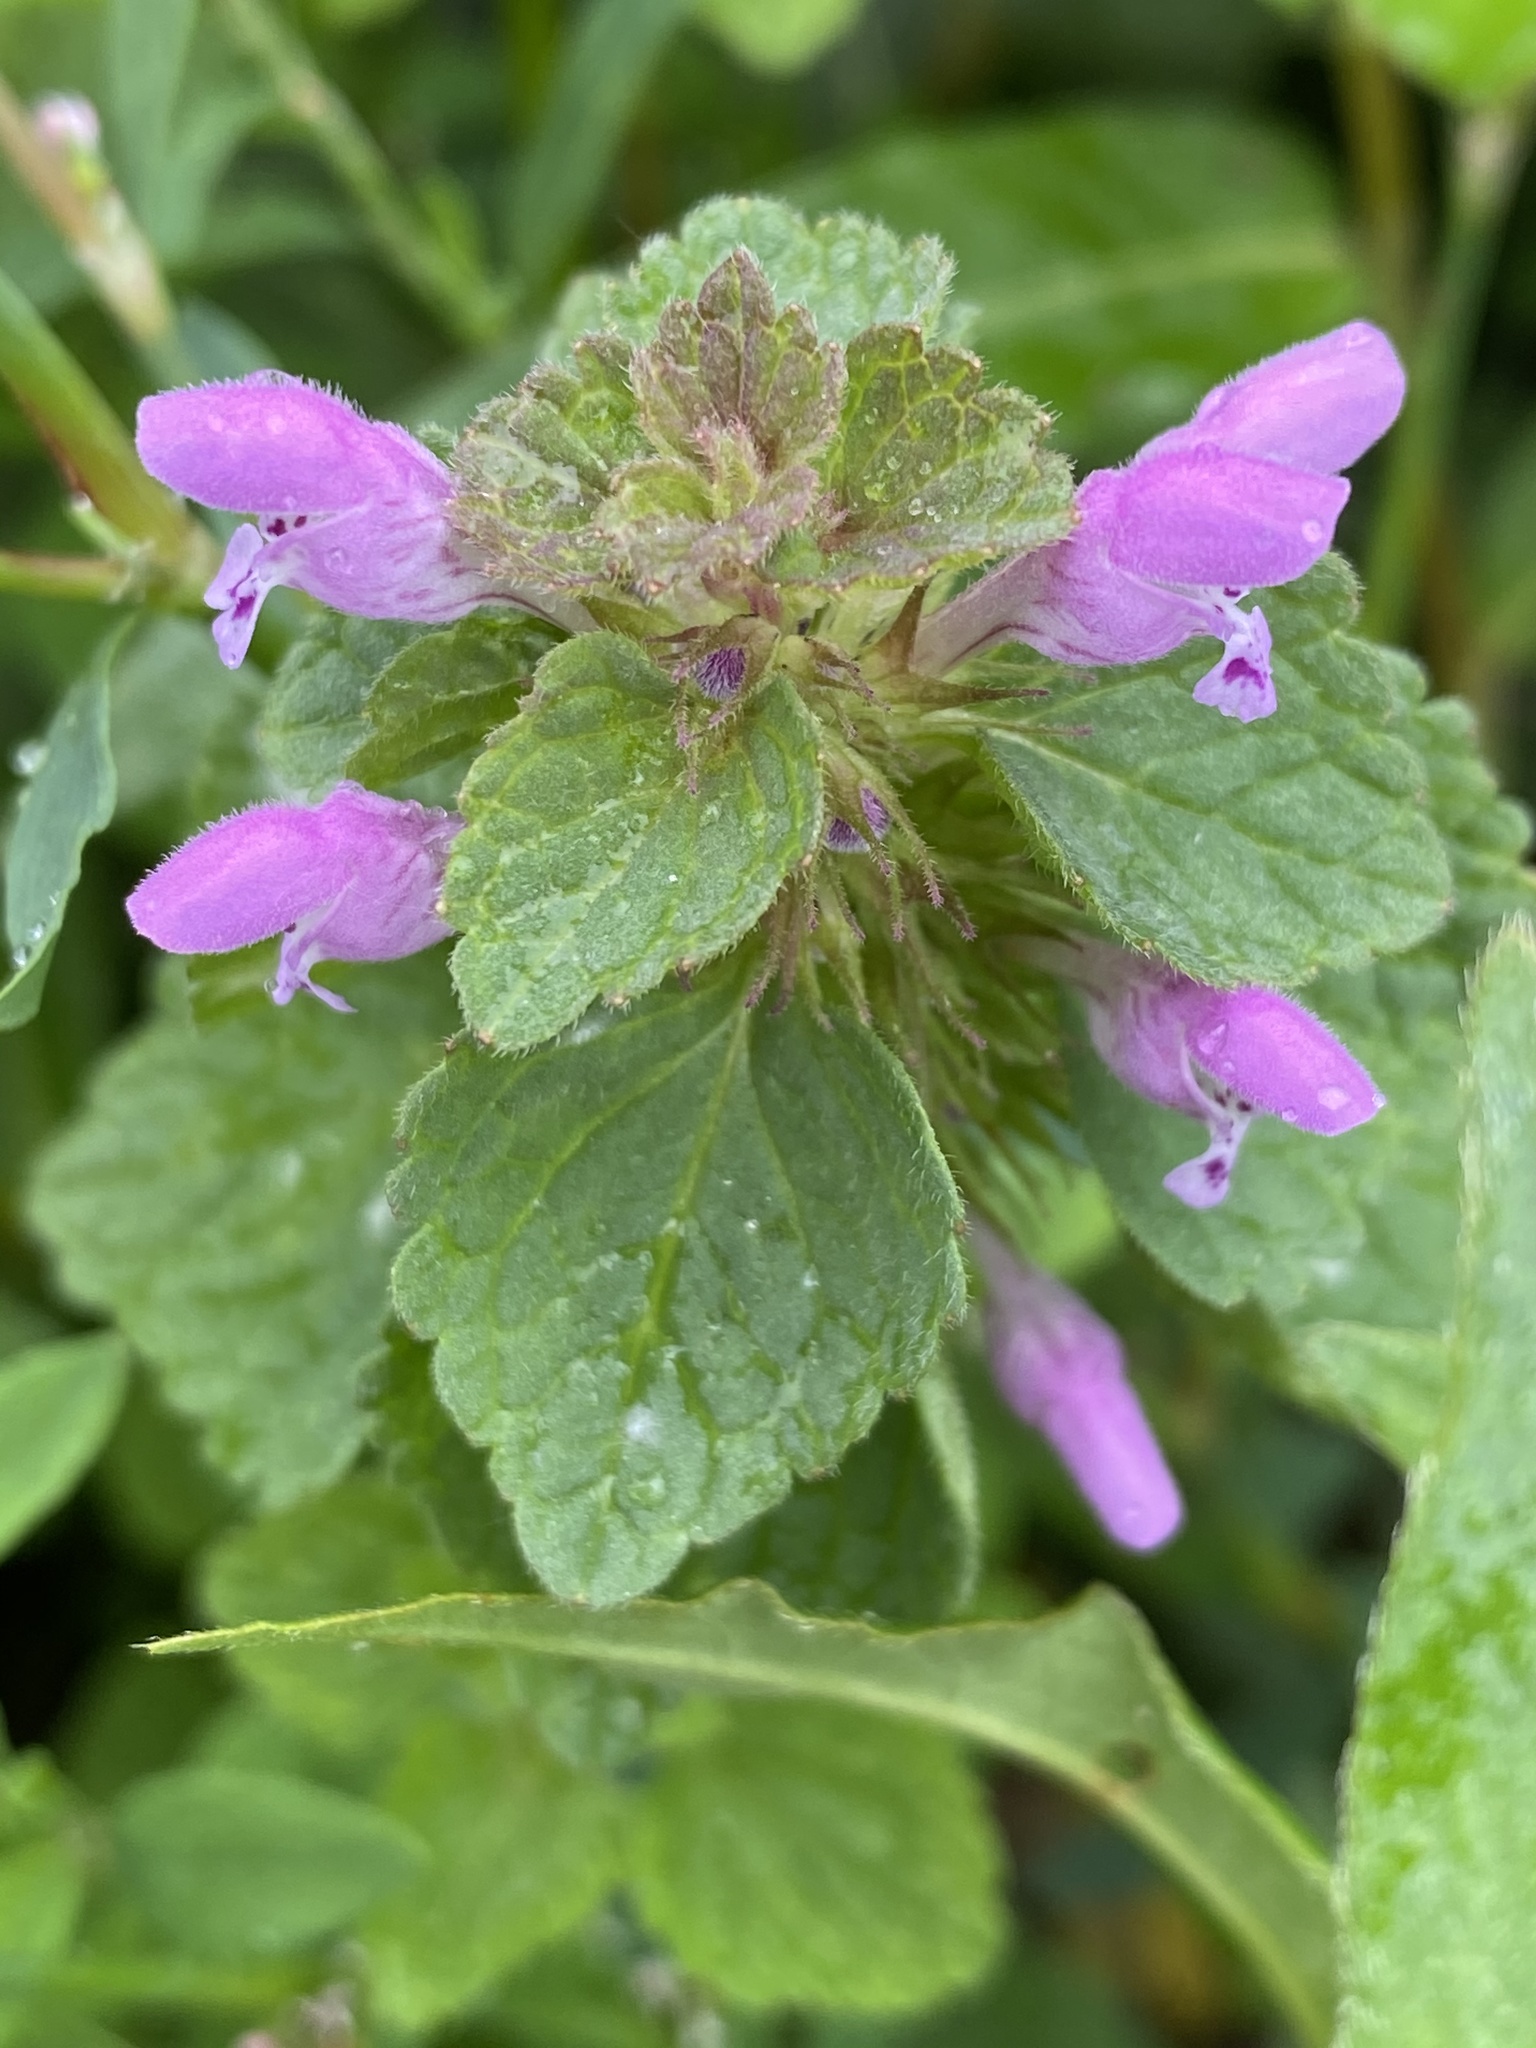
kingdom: Plantae
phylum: Tracheophyta
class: Magnoliopsida
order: Lamiales
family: Lamiaceae
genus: Lamium
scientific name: Lamium purpureum
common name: Red dead-nettle
